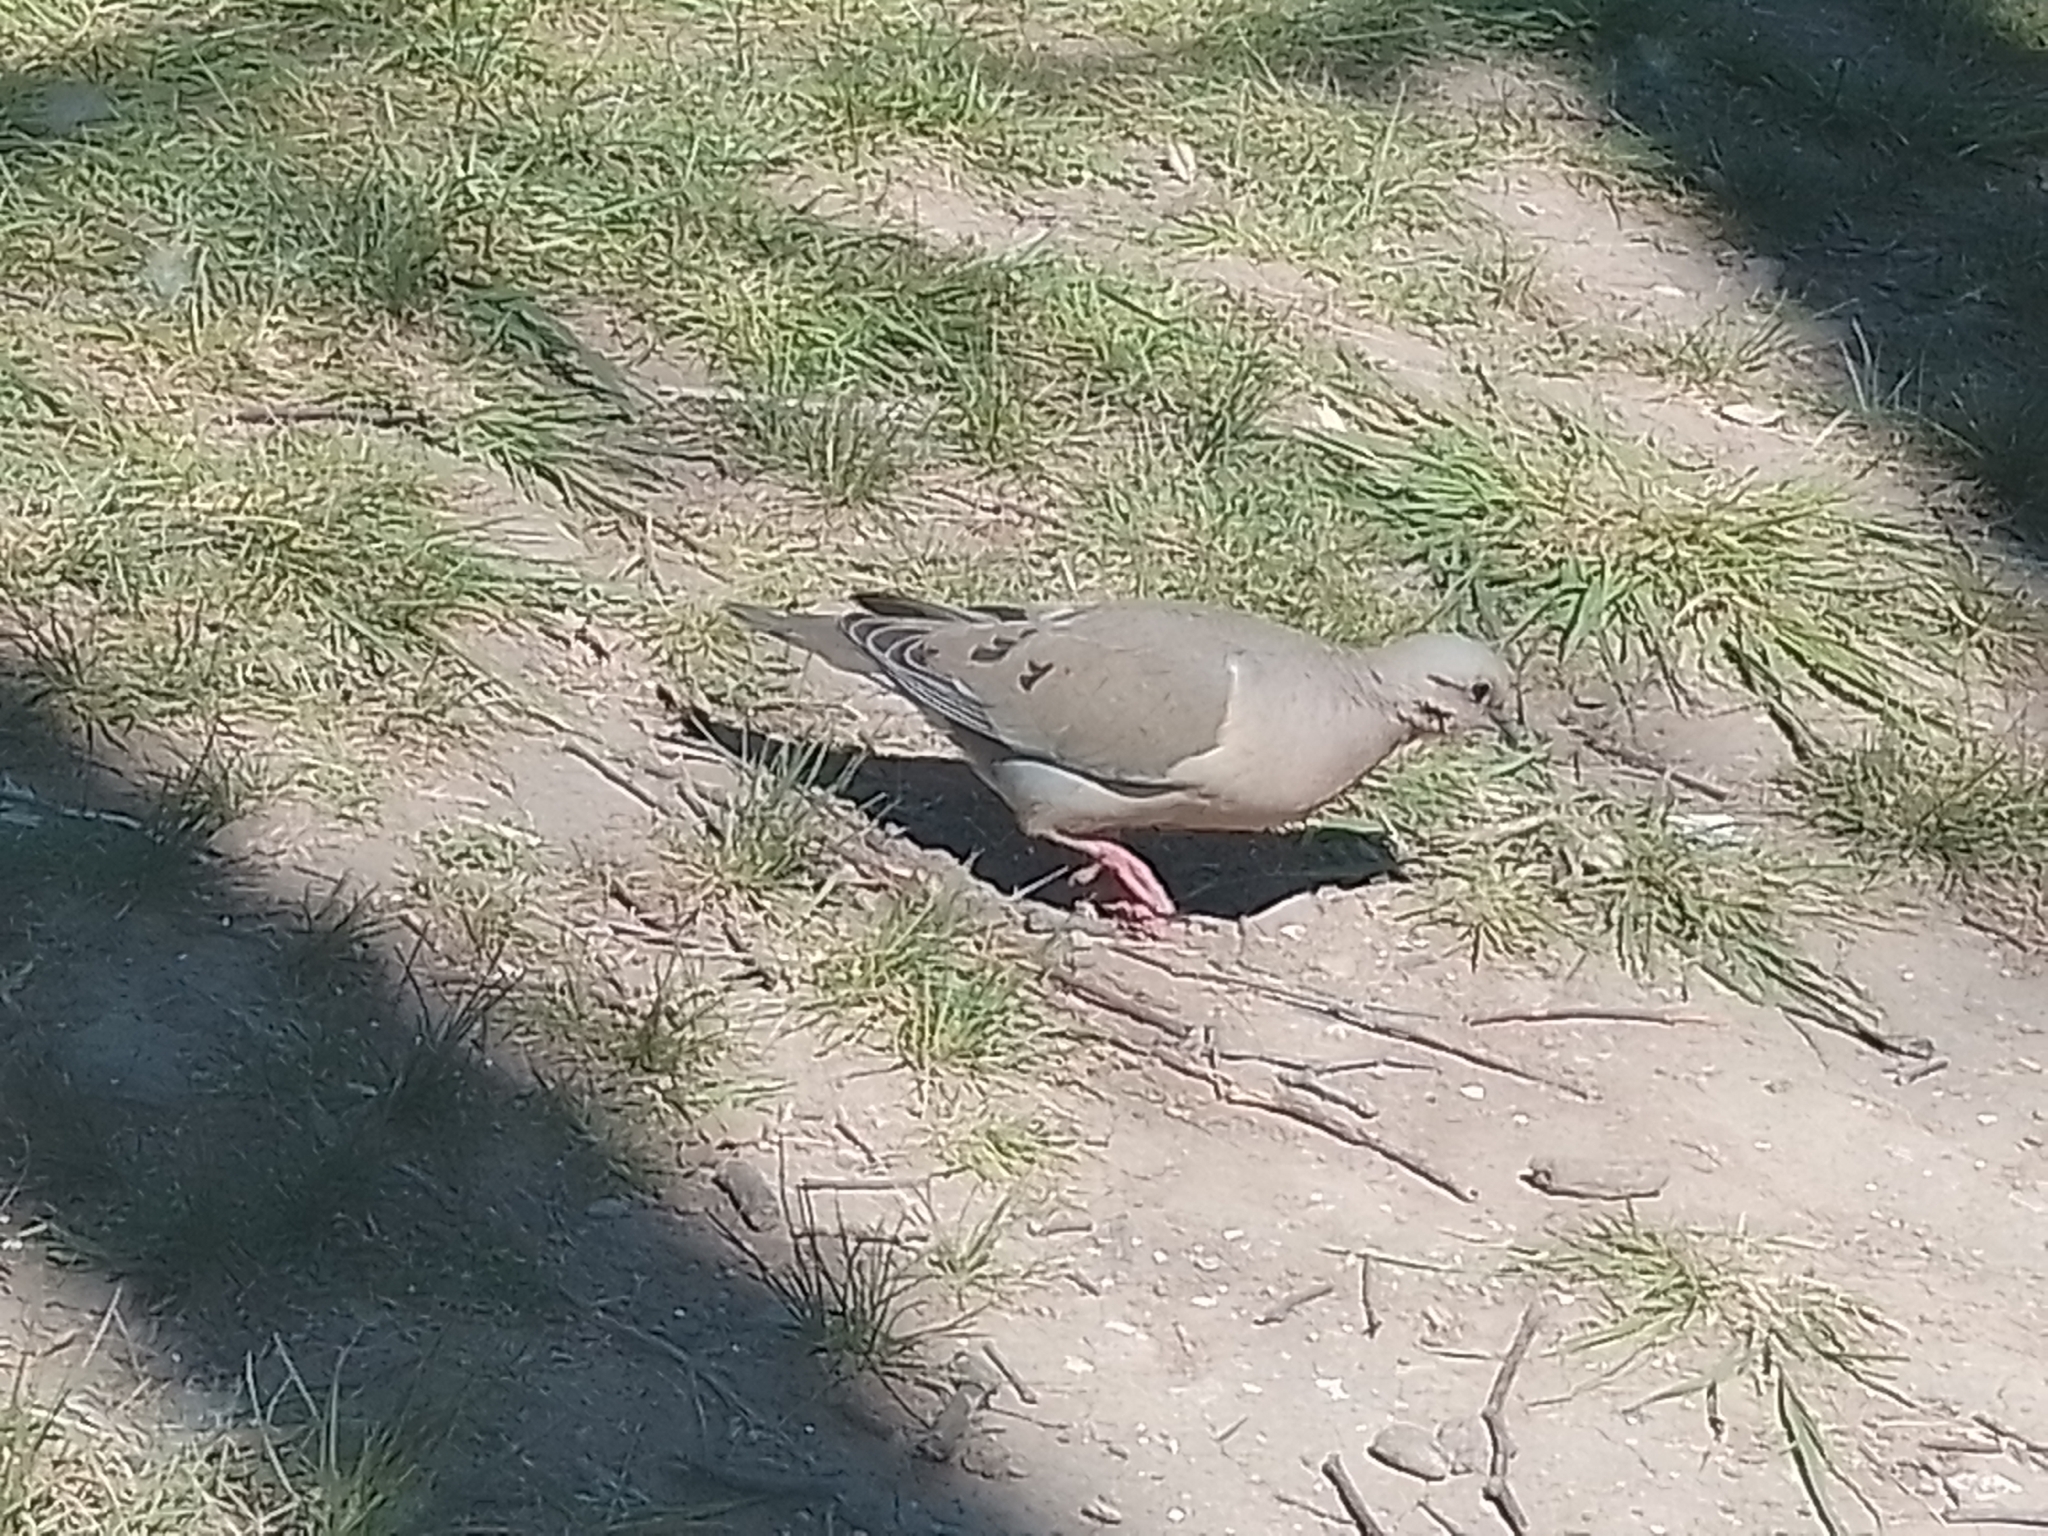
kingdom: Animalia
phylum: Chordata
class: Aves
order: Columbiformes
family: Columbidae
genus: Zenaida
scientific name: Zenaida auriculata
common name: Eared dove
